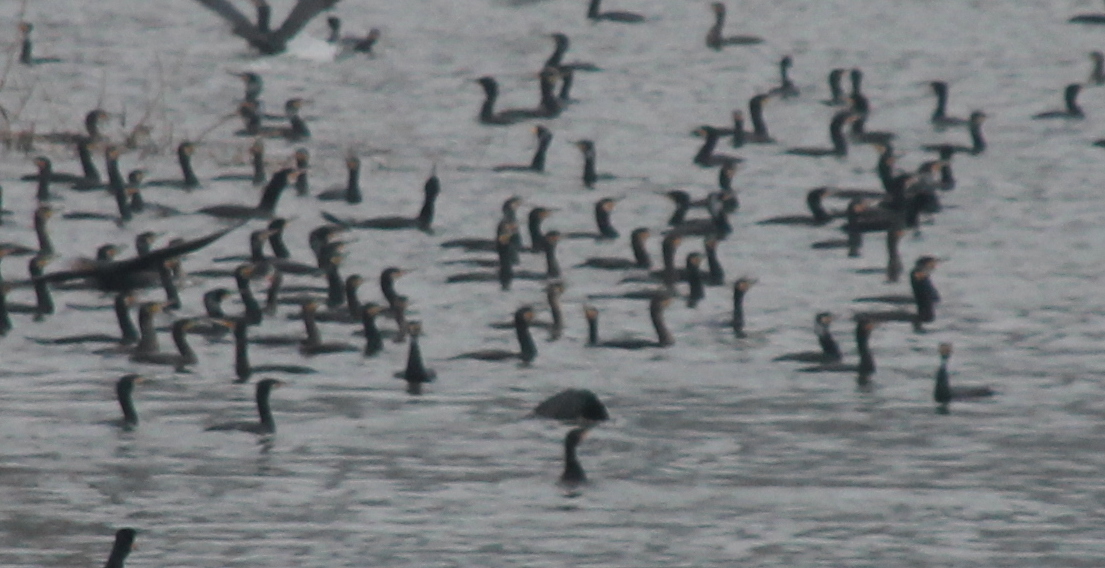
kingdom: Animalia
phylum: Chordata
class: Aves
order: Suliformes
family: Phalacrocoracidae
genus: Phalacrocorax
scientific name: Phalacrocorax carbo
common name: Great cormorant
